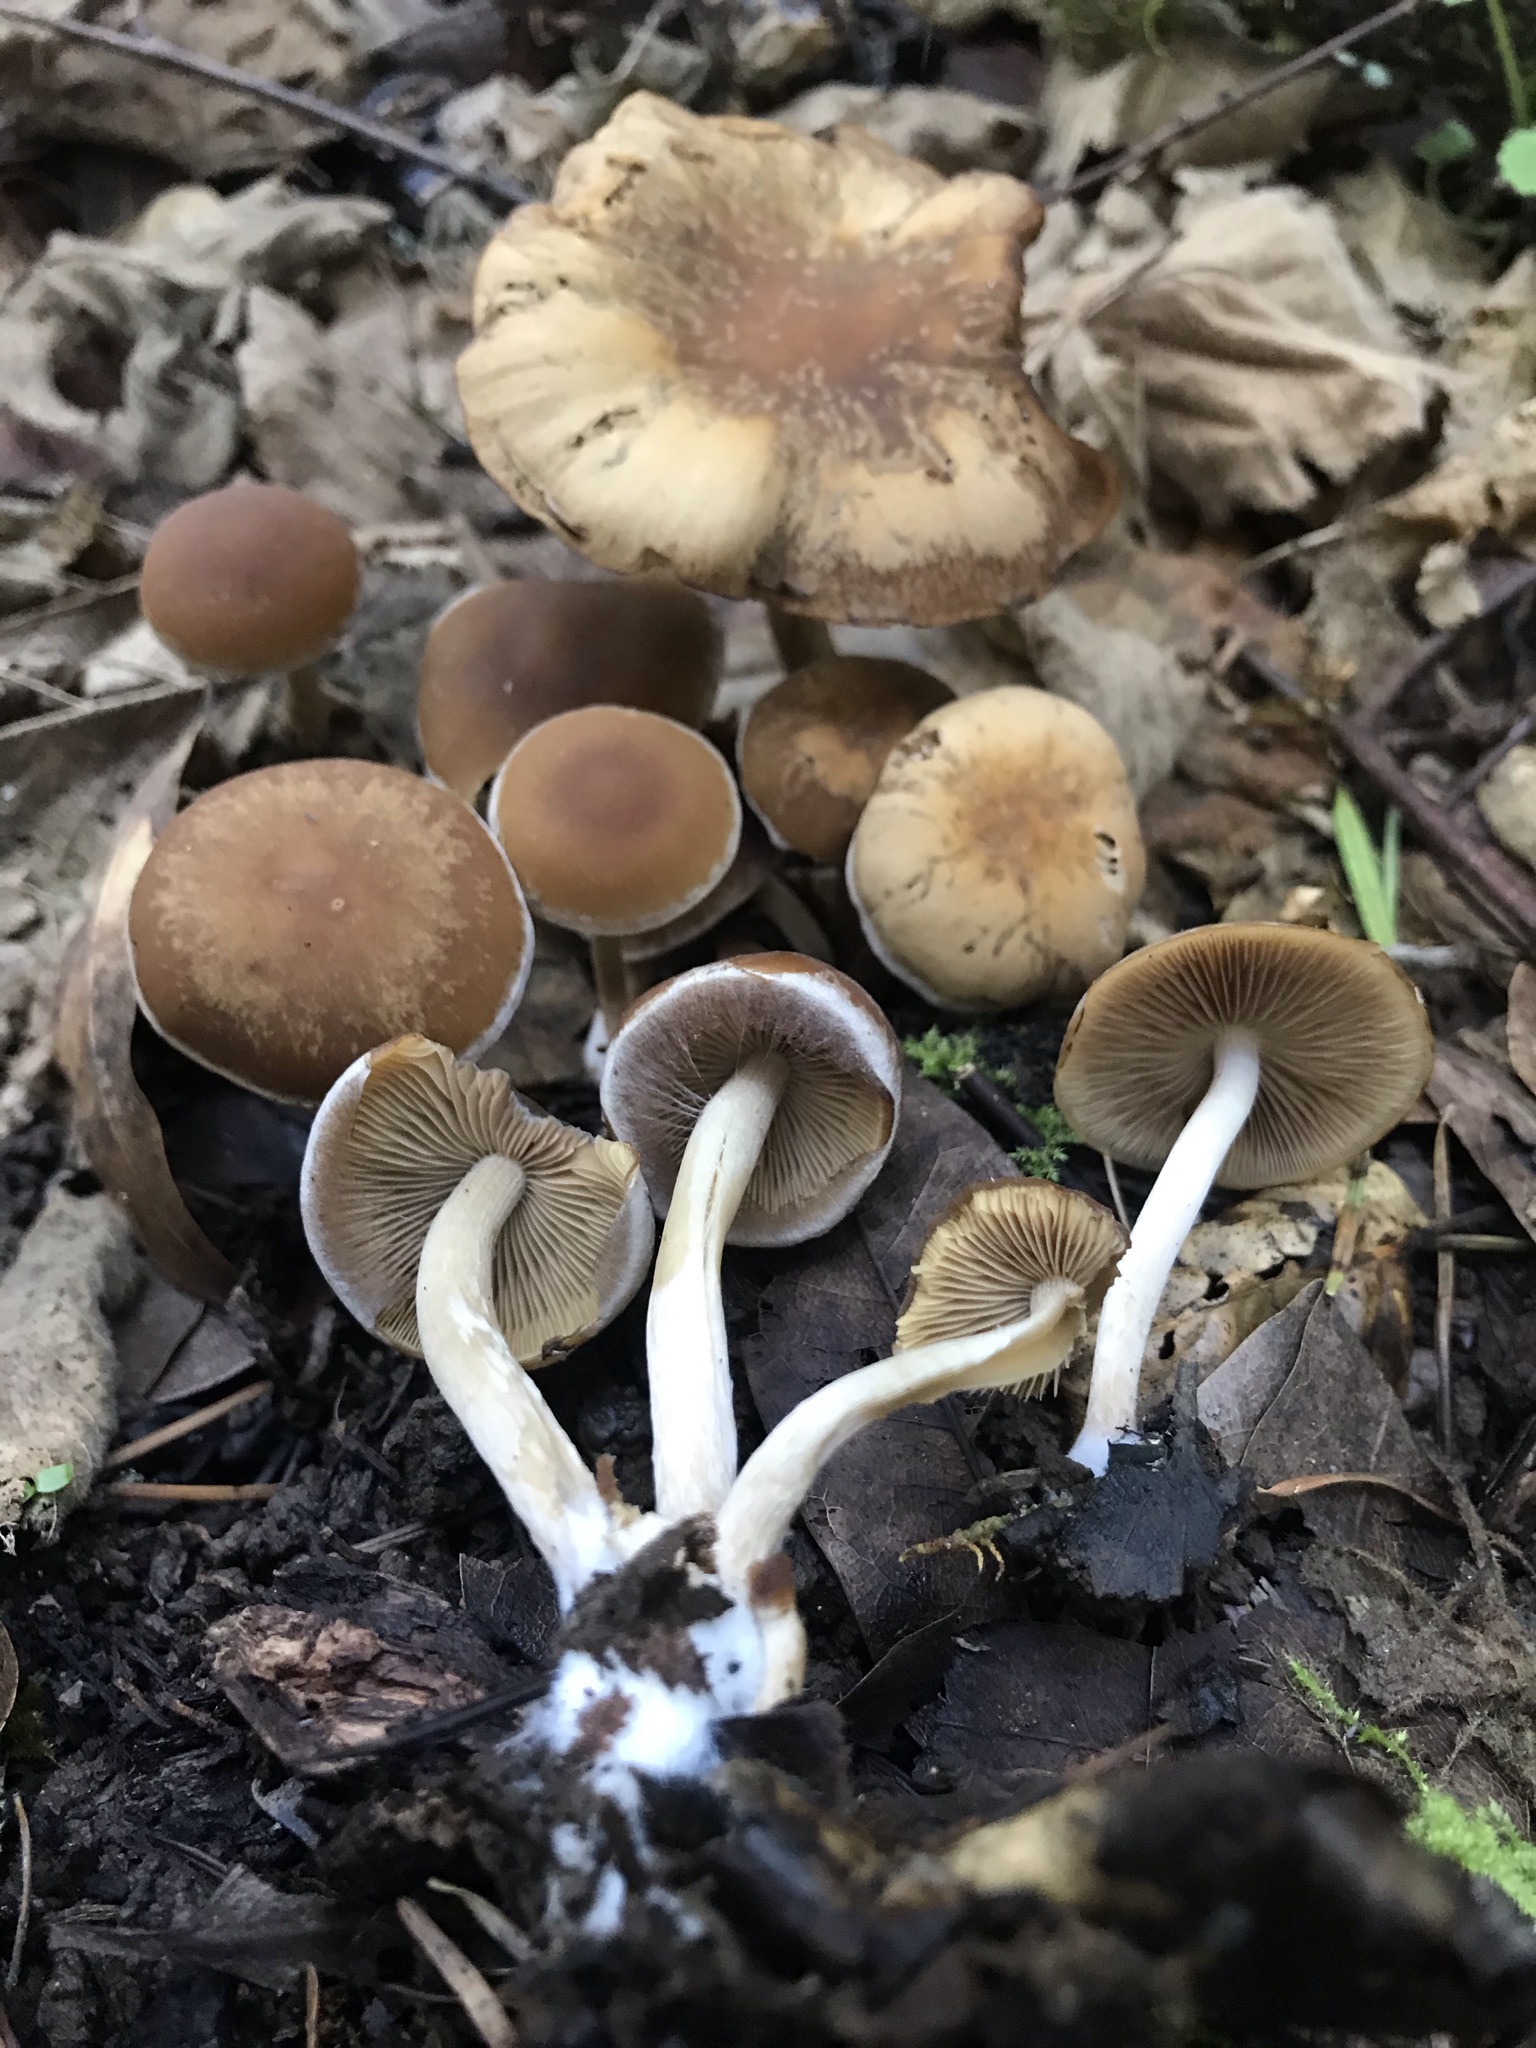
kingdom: Fungi
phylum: Basidiomycota
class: Agaricomycetes
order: Agaricales
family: Psathyrellaceae
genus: Psathyrella
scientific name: Psathyrella piluliformis
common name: Common stump brittlestem
